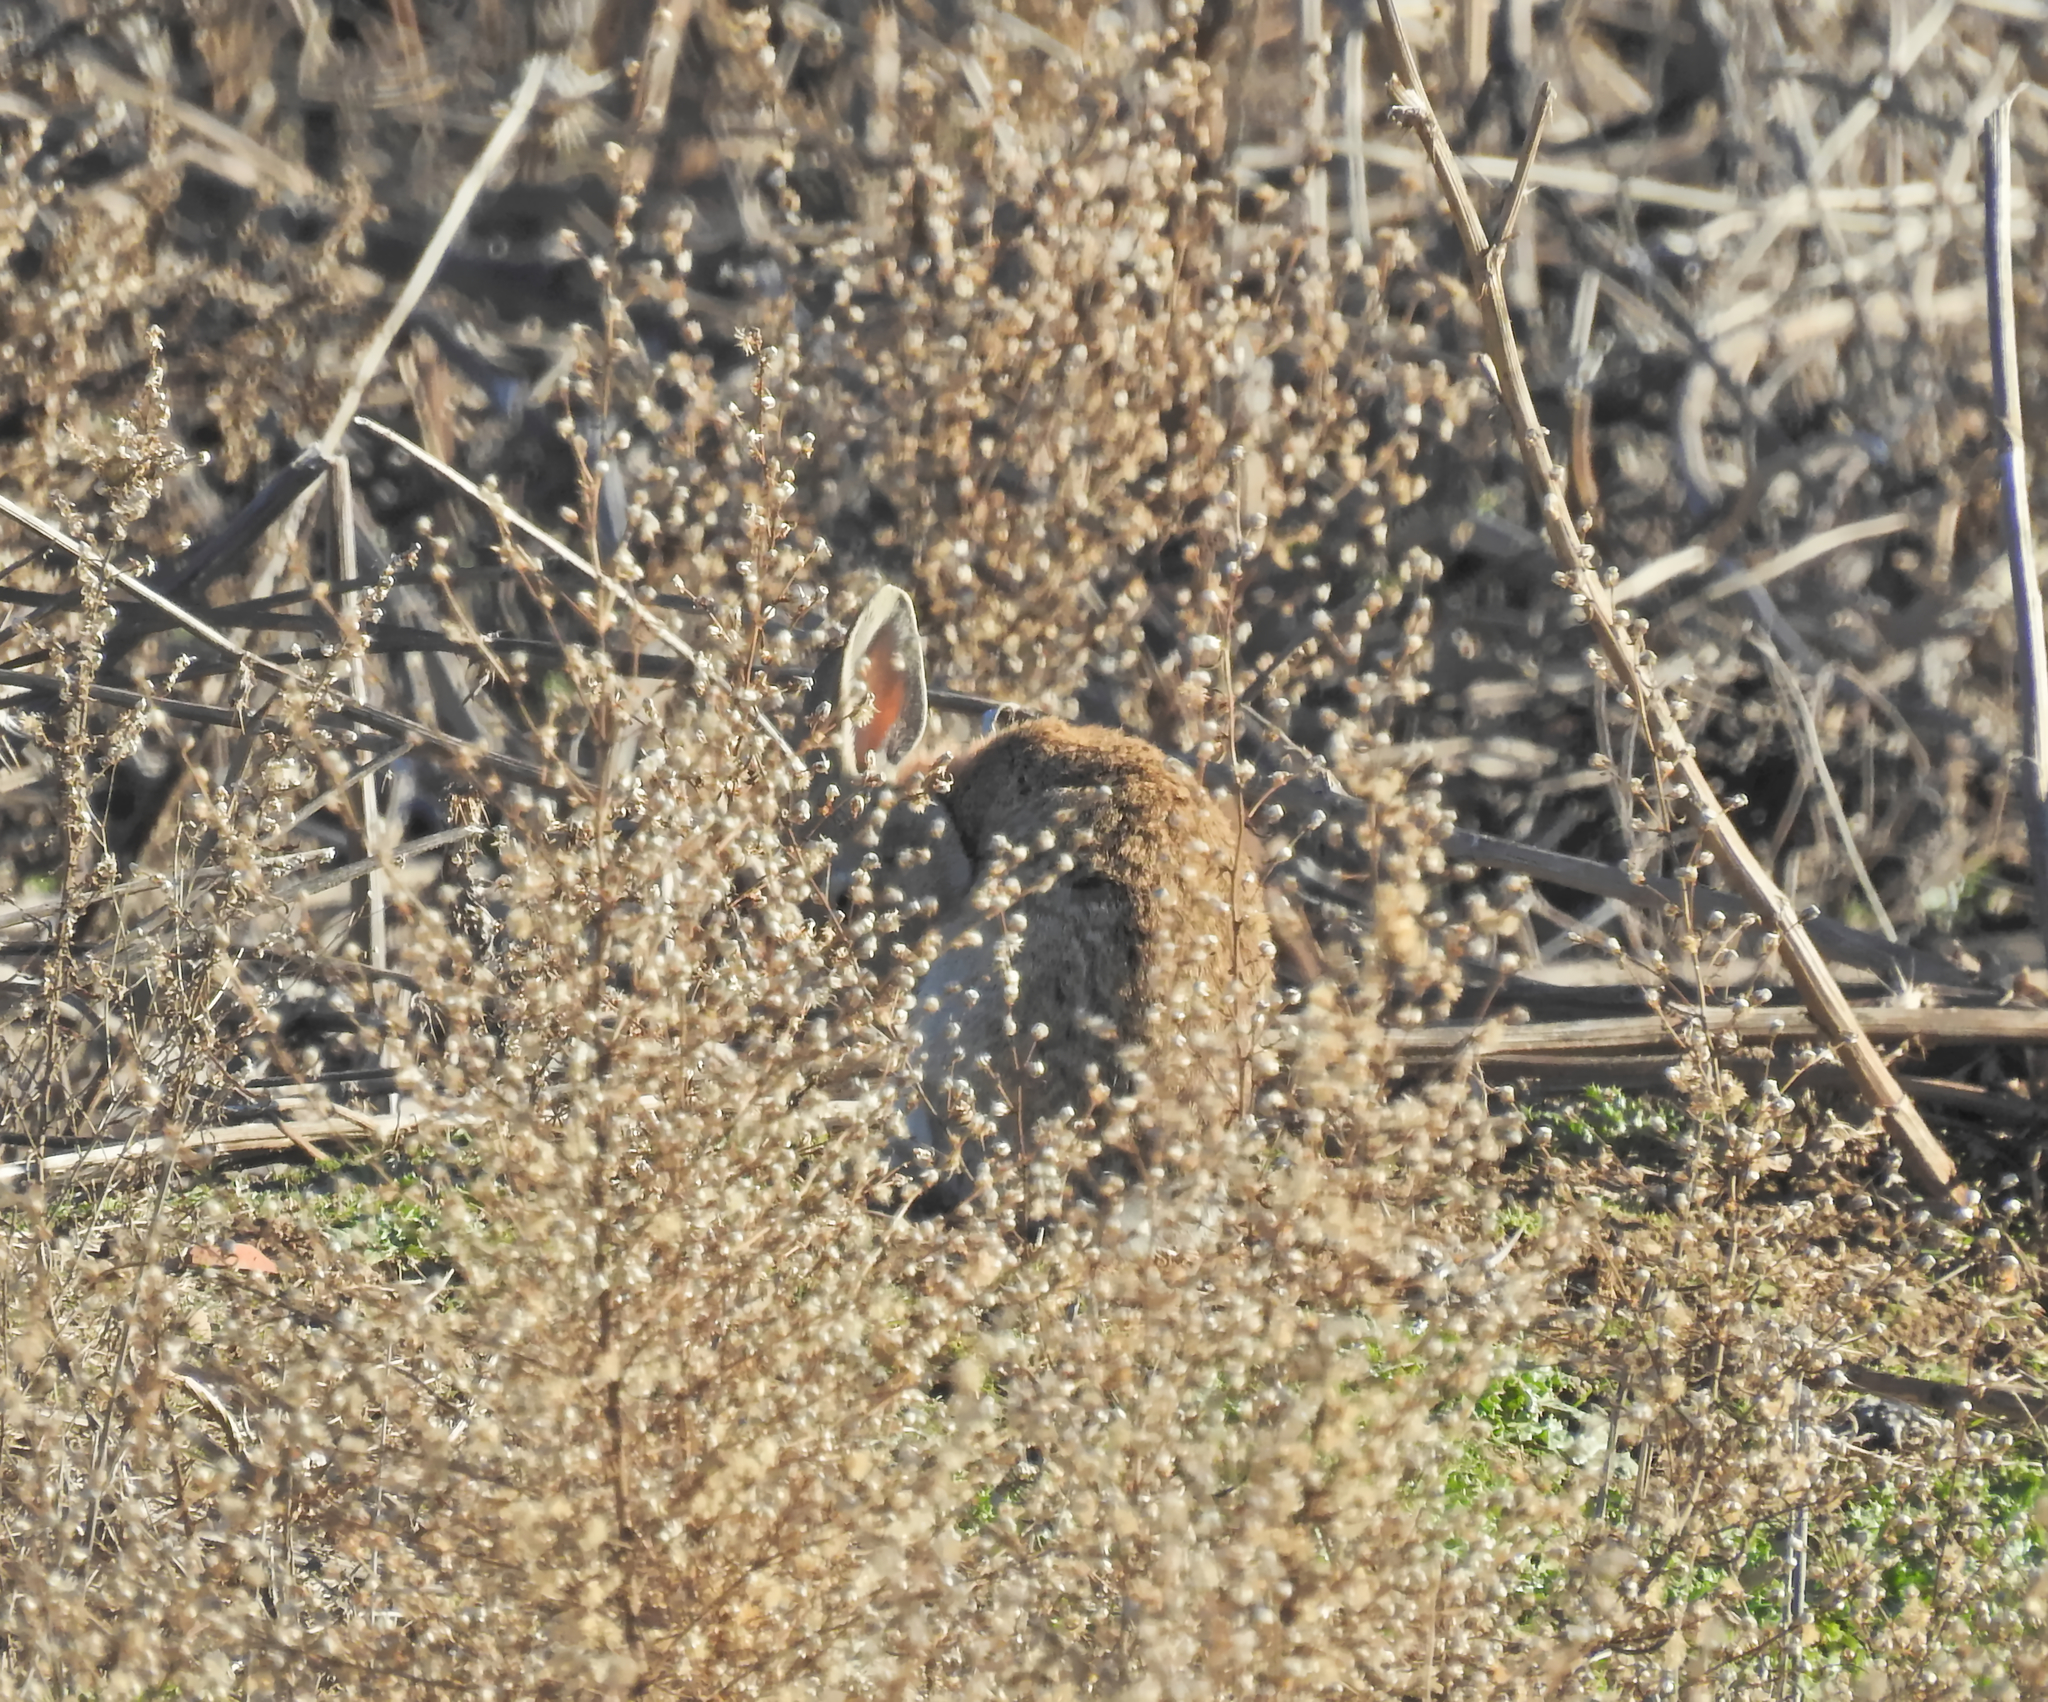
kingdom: Animalia
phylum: Chordata
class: Mammalia
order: Lagomorpha
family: Leporidae
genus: Oryctolagus
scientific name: Oryctolagus cuniculus
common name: European rabbit
